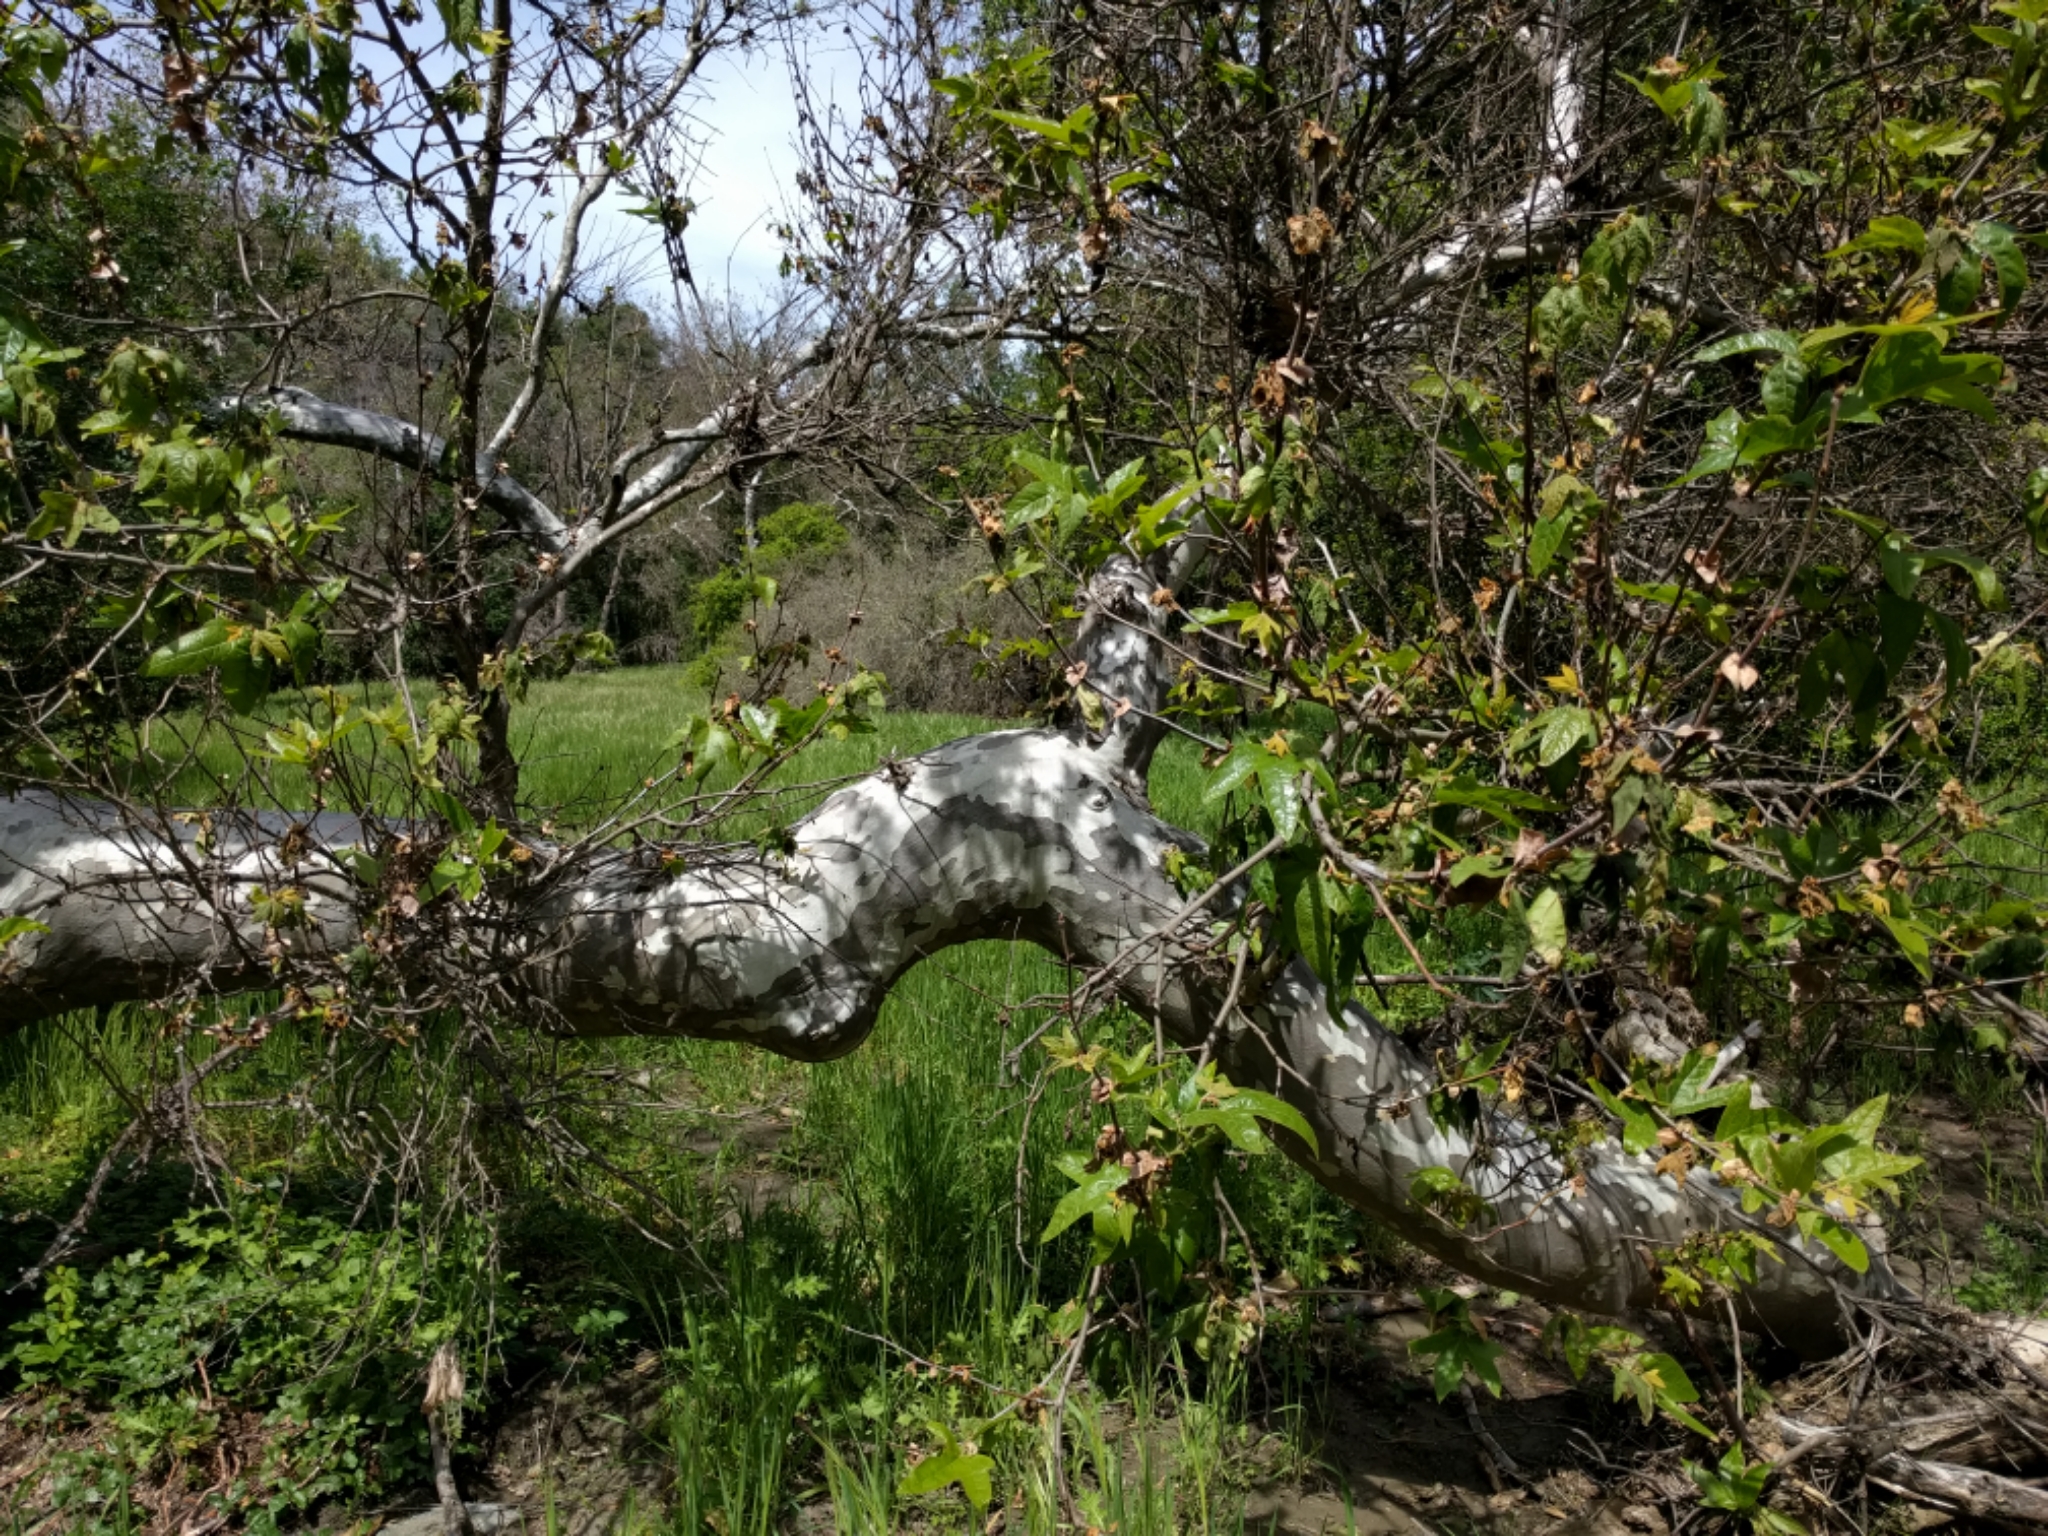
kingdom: Plantae
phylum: Tracheophyta
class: Magnoliopsida
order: Proteales
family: Platanaceae
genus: Platanus
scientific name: Platanus racemosa
